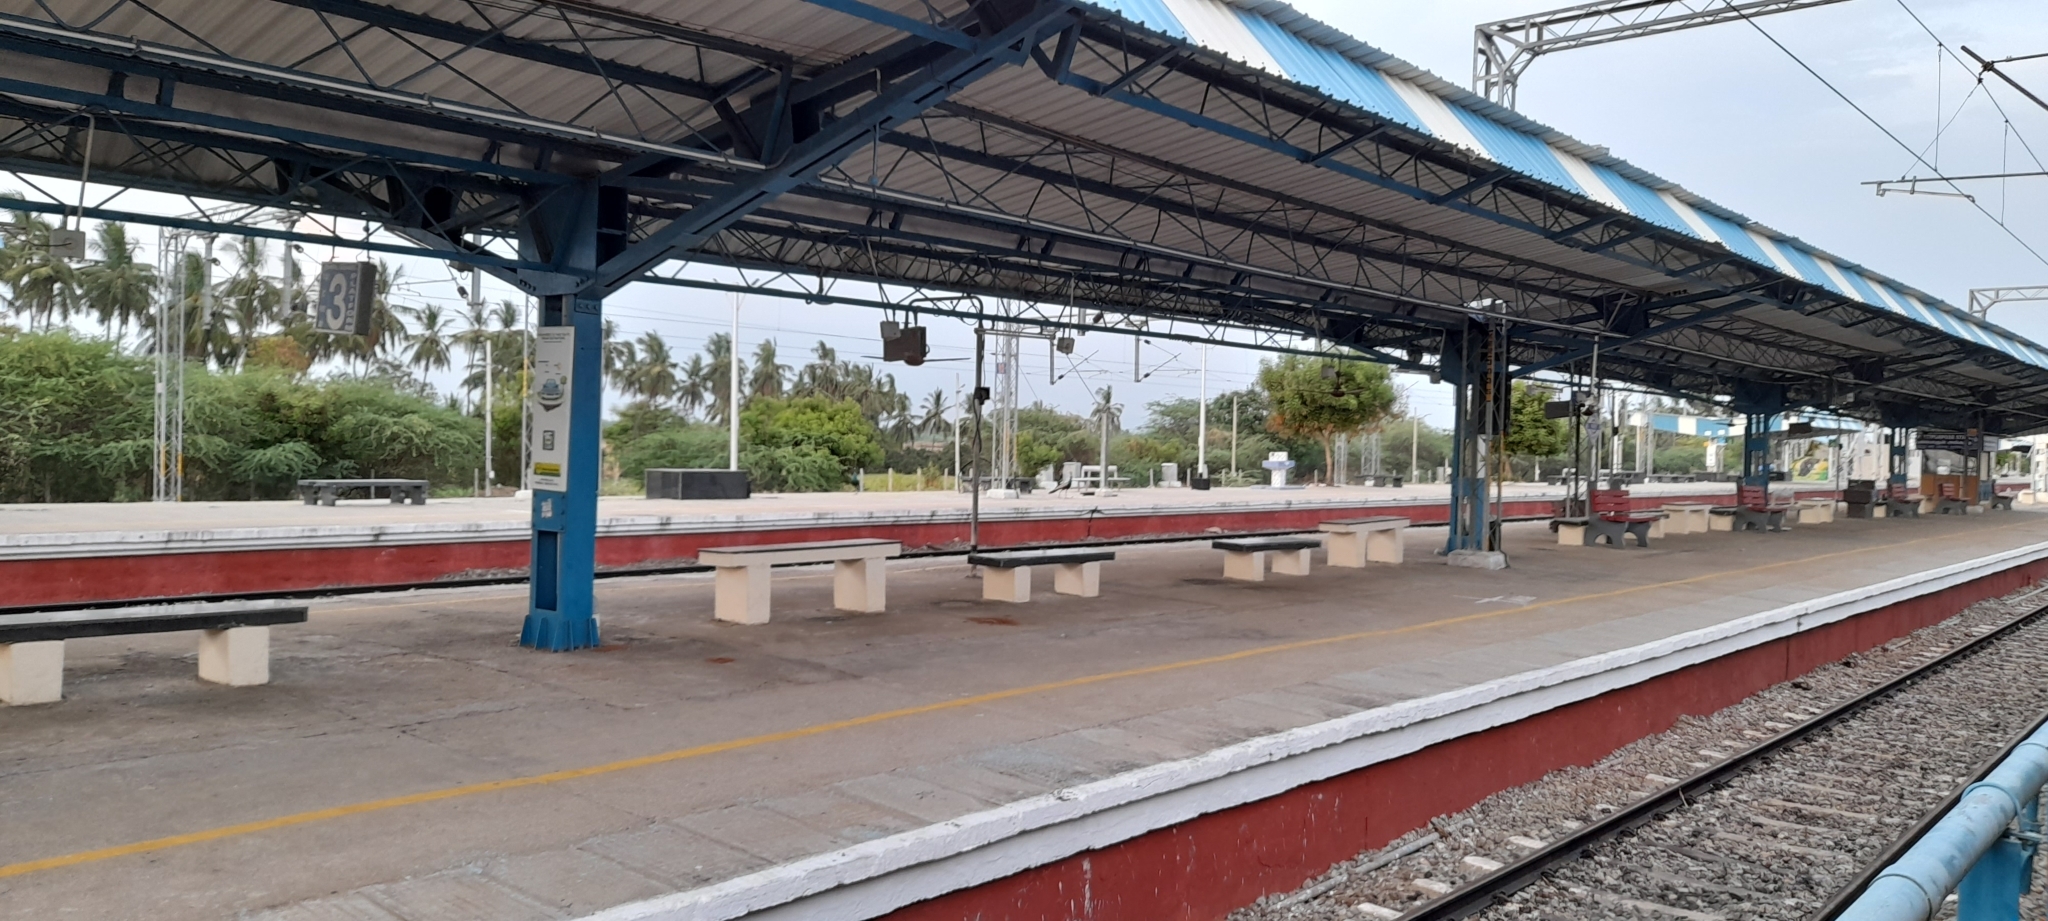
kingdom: Animalia
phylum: Chordata
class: Aves
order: Galliformes
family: Phasianidae
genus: Pavo
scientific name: Pavo cristatus
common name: Indian peafowl
